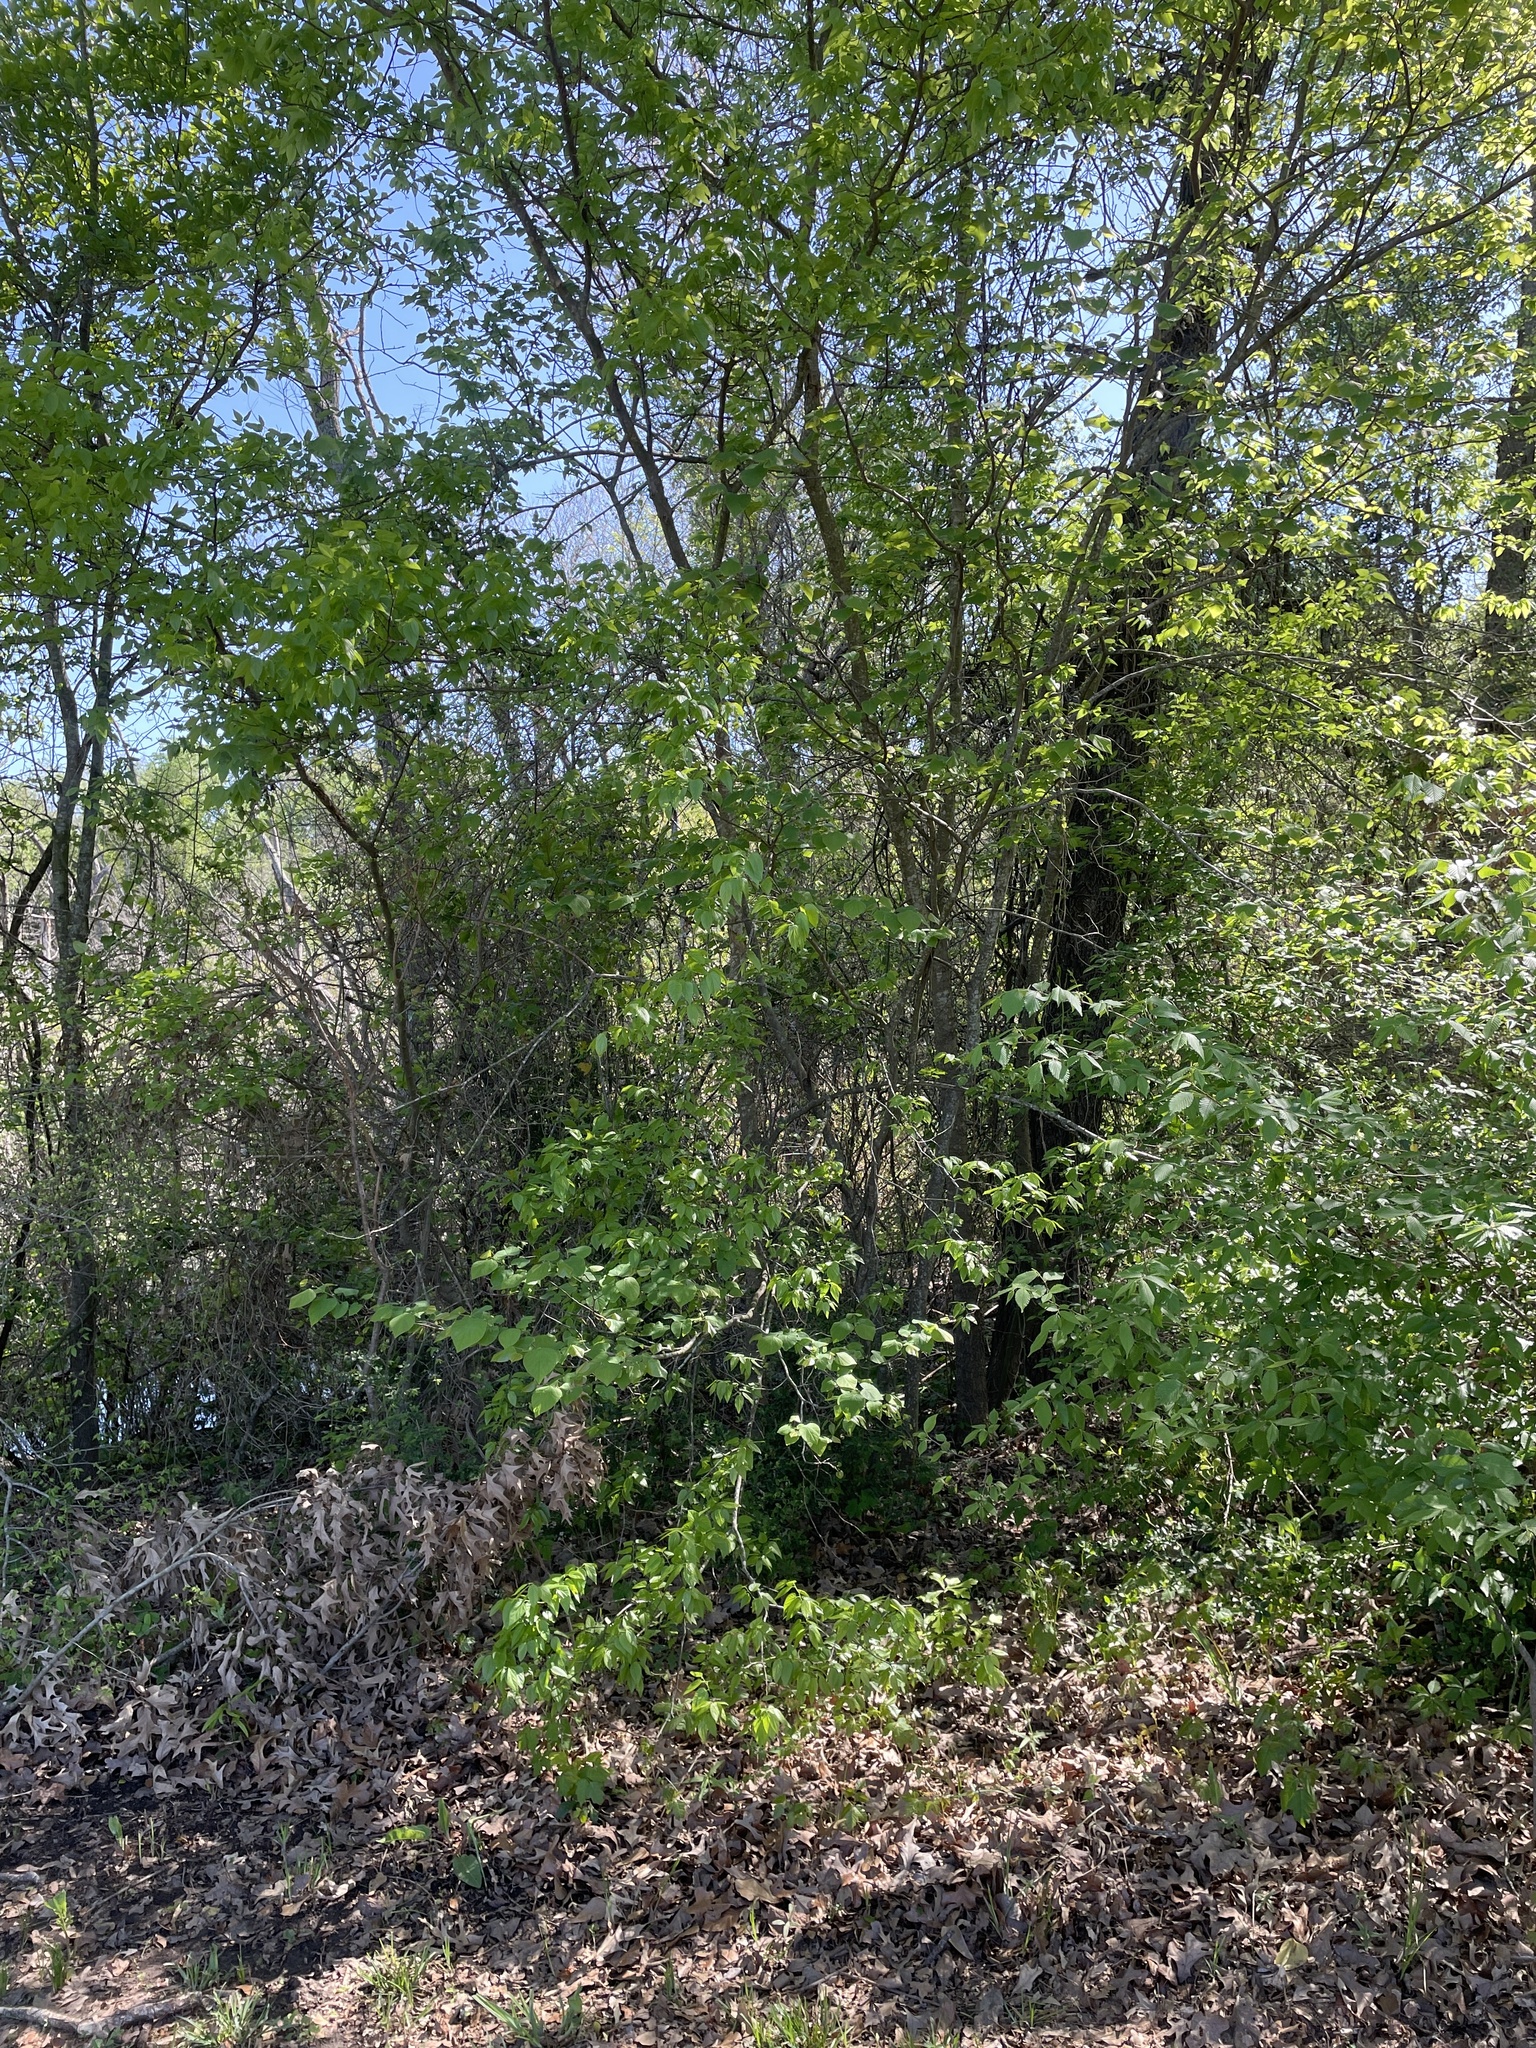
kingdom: Animalia
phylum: Chordata
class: Aves
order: Passeriformes
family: Vireonidae
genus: Vireo
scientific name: Vireo griseus
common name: White-eyed vireo
